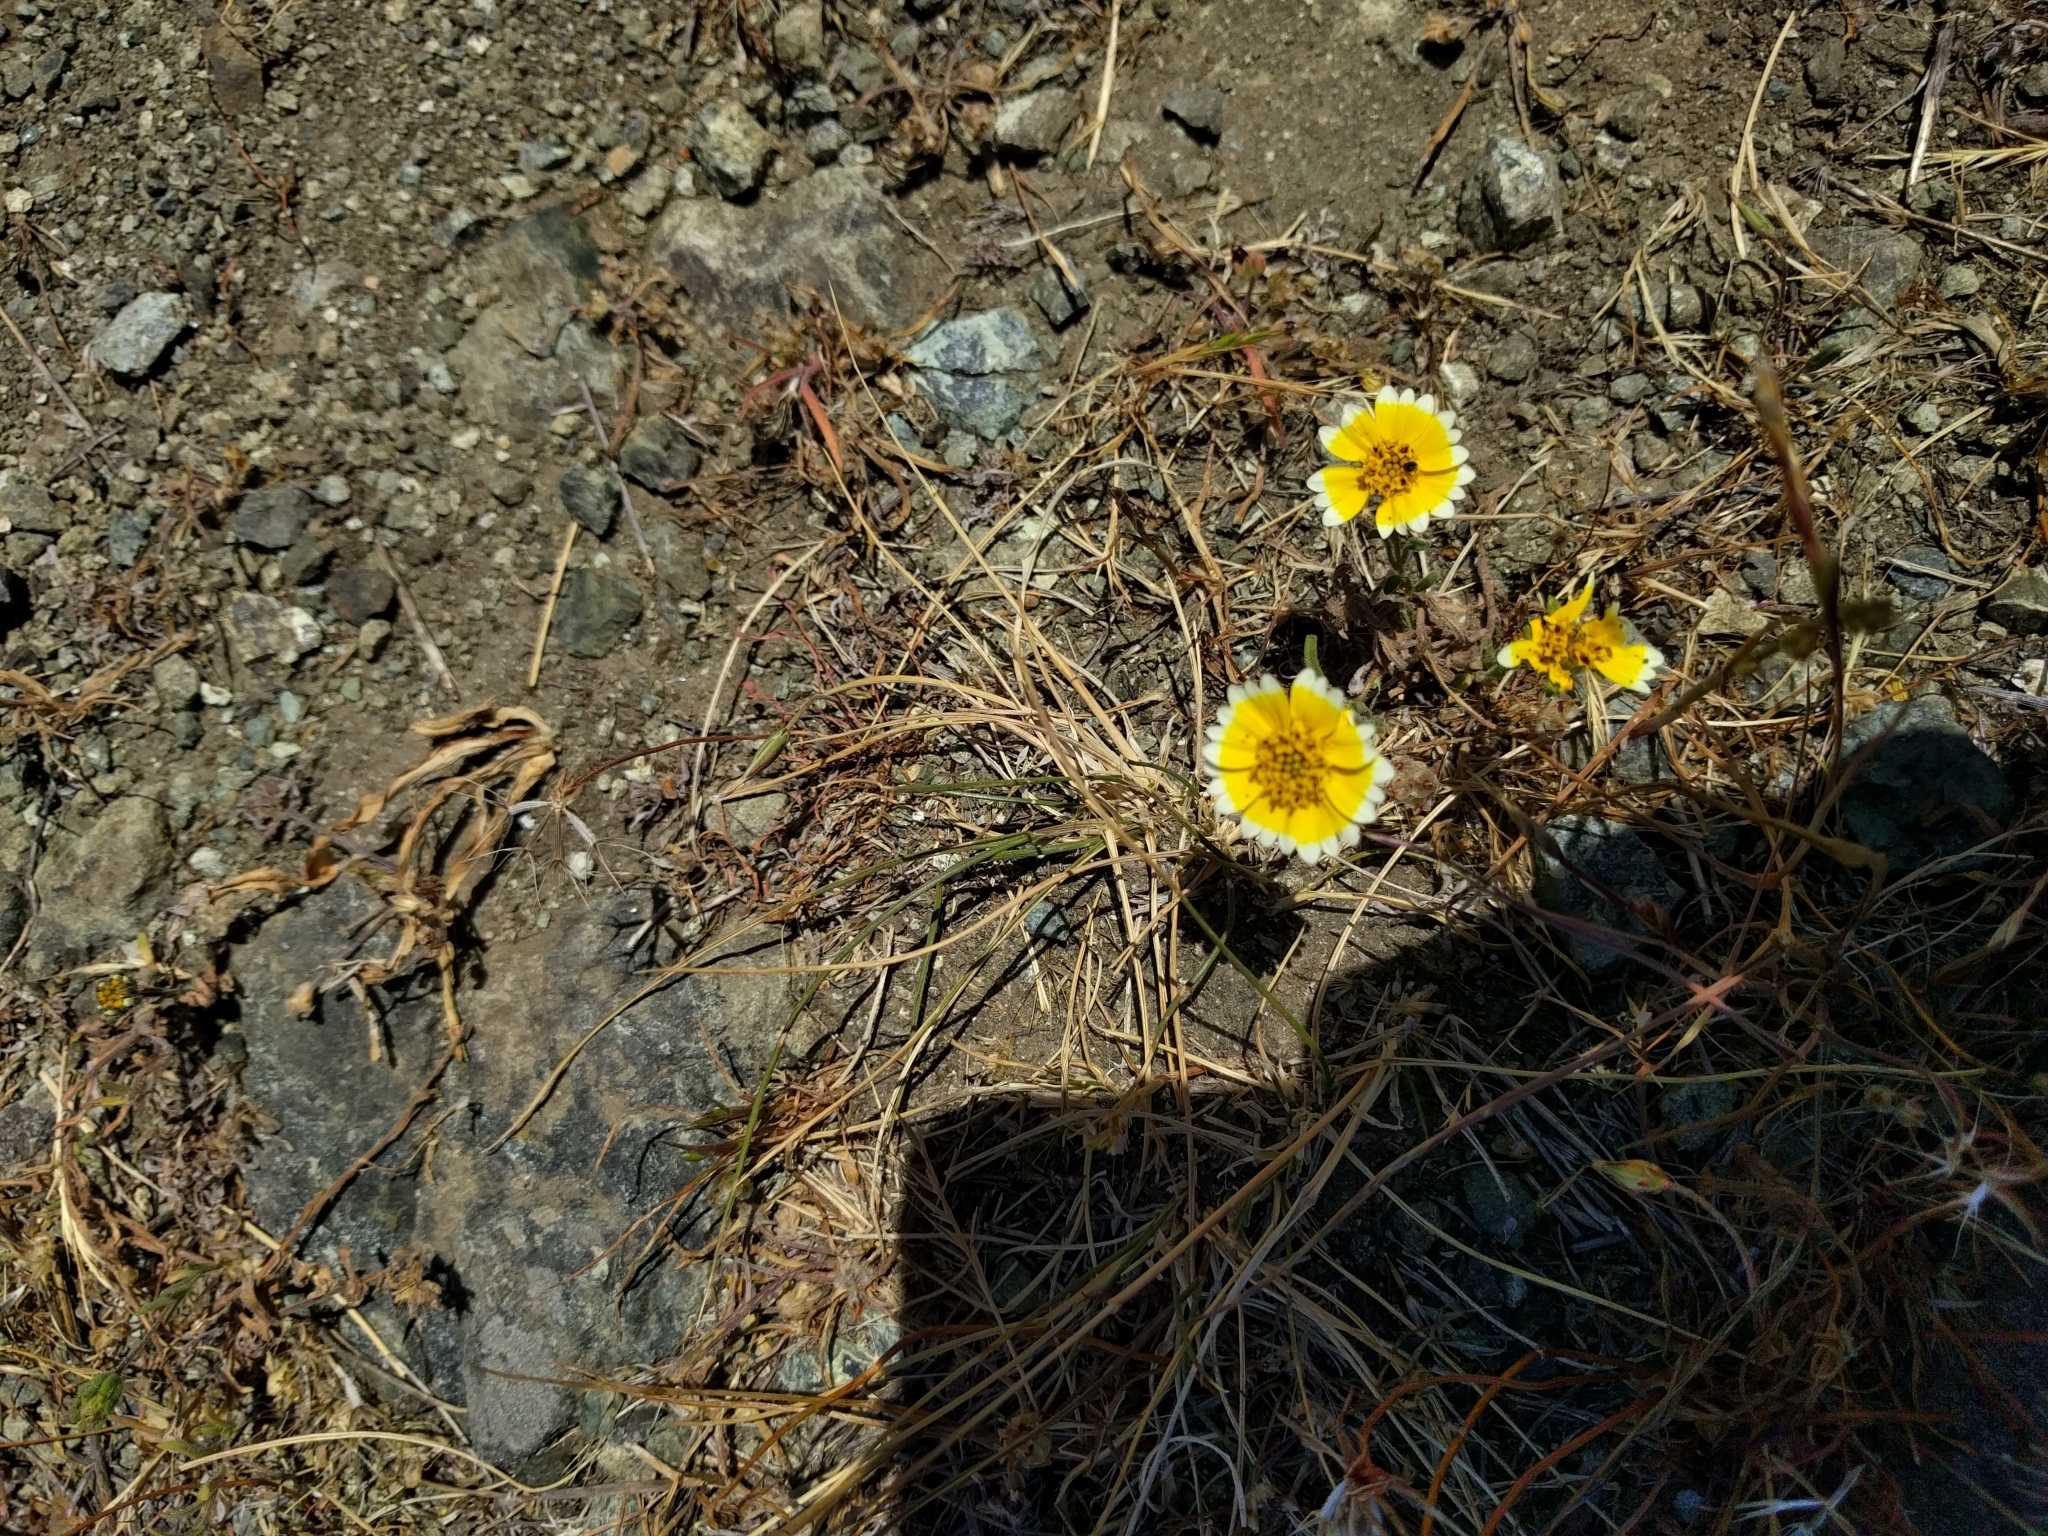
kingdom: Plantae
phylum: Tracheophyta
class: Magnoliopsida
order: Asterales
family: Asteraceae
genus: Layia
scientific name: Layia platyglossa
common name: Tidy-tips
